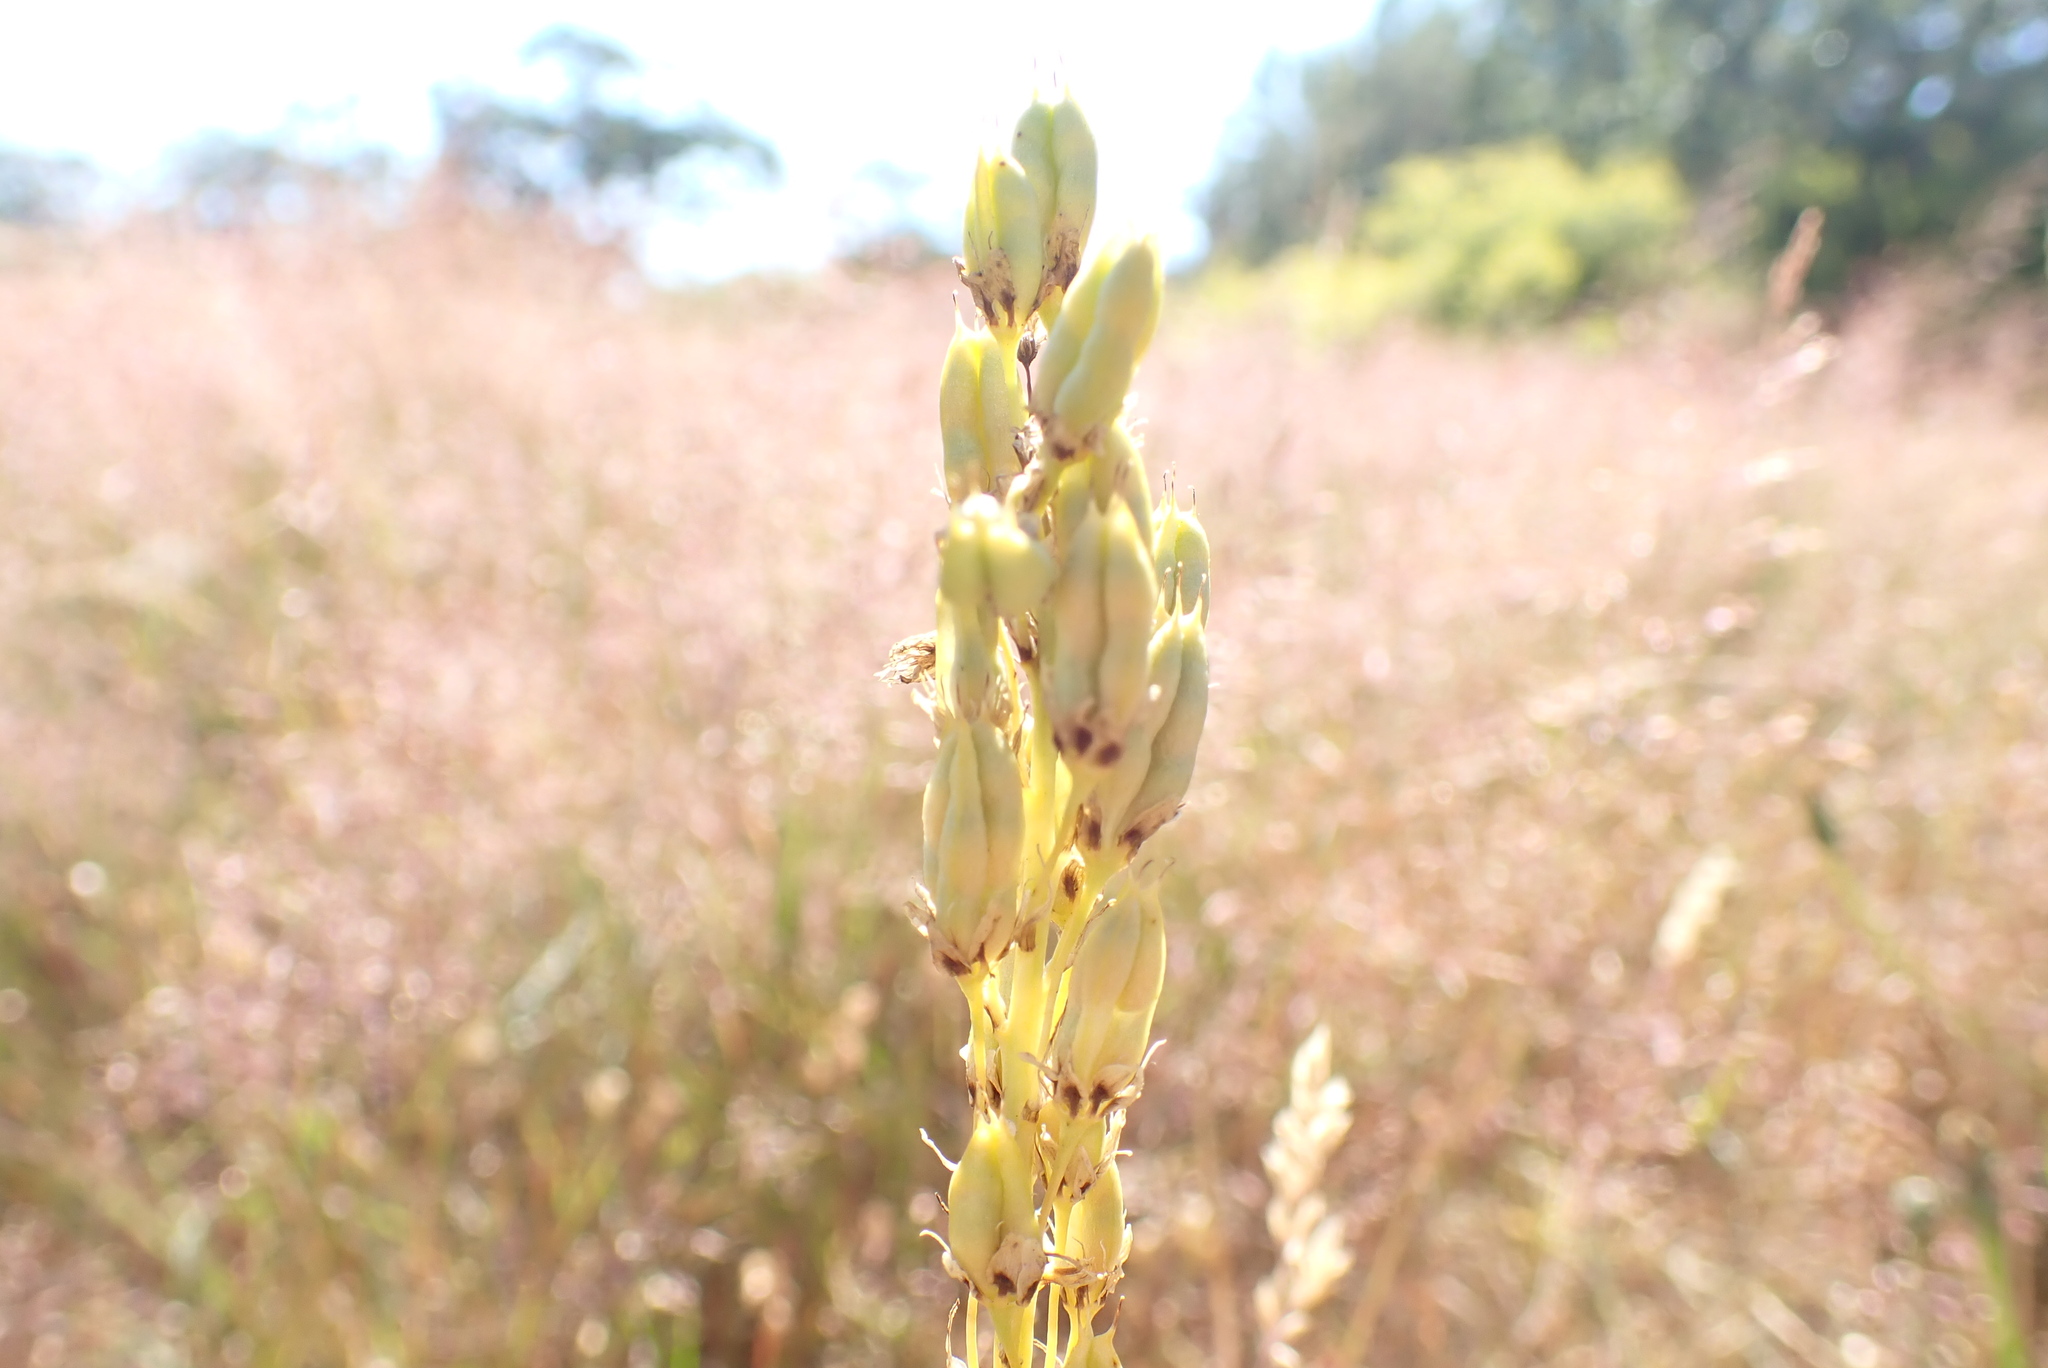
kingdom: Plantae
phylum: Tracheophyta
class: Liliopsida
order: Liliales
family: Melanthiaceae
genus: Toxicoscordion
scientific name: Toxicoscordion venenosum
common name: Meadow death camas
